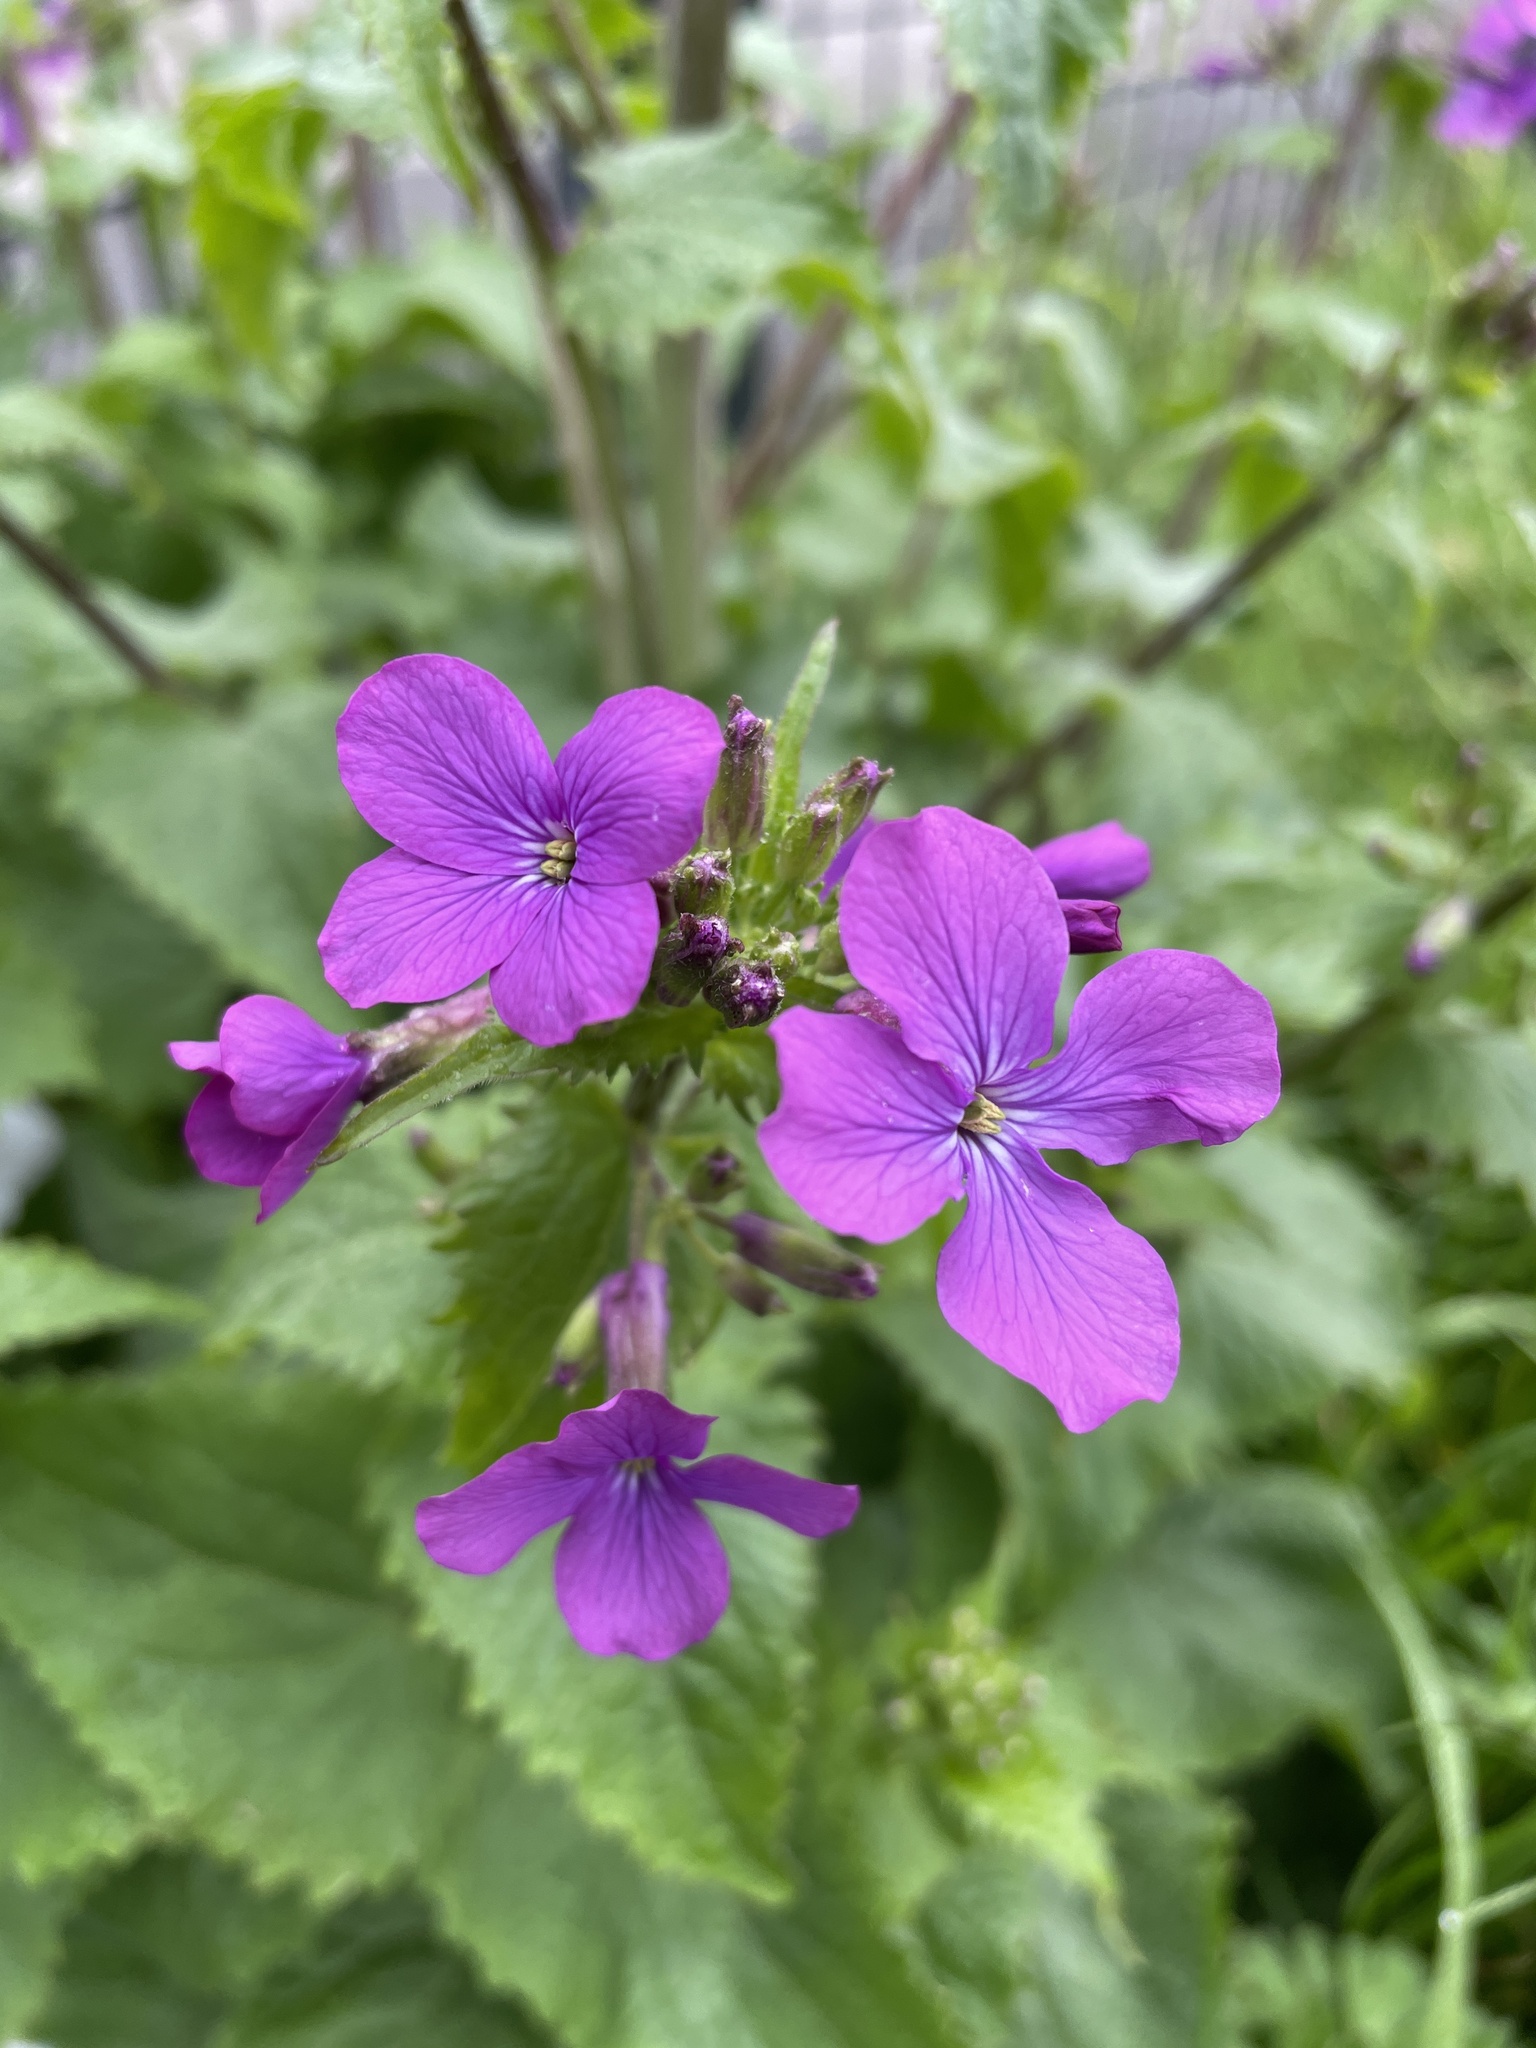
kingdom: Plantae
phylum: Tracheophyta
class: Magnoliopsida
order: Brassicales
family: Brassicaceae
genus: Lunaria
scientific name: Lunaria annua
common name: Honesty
